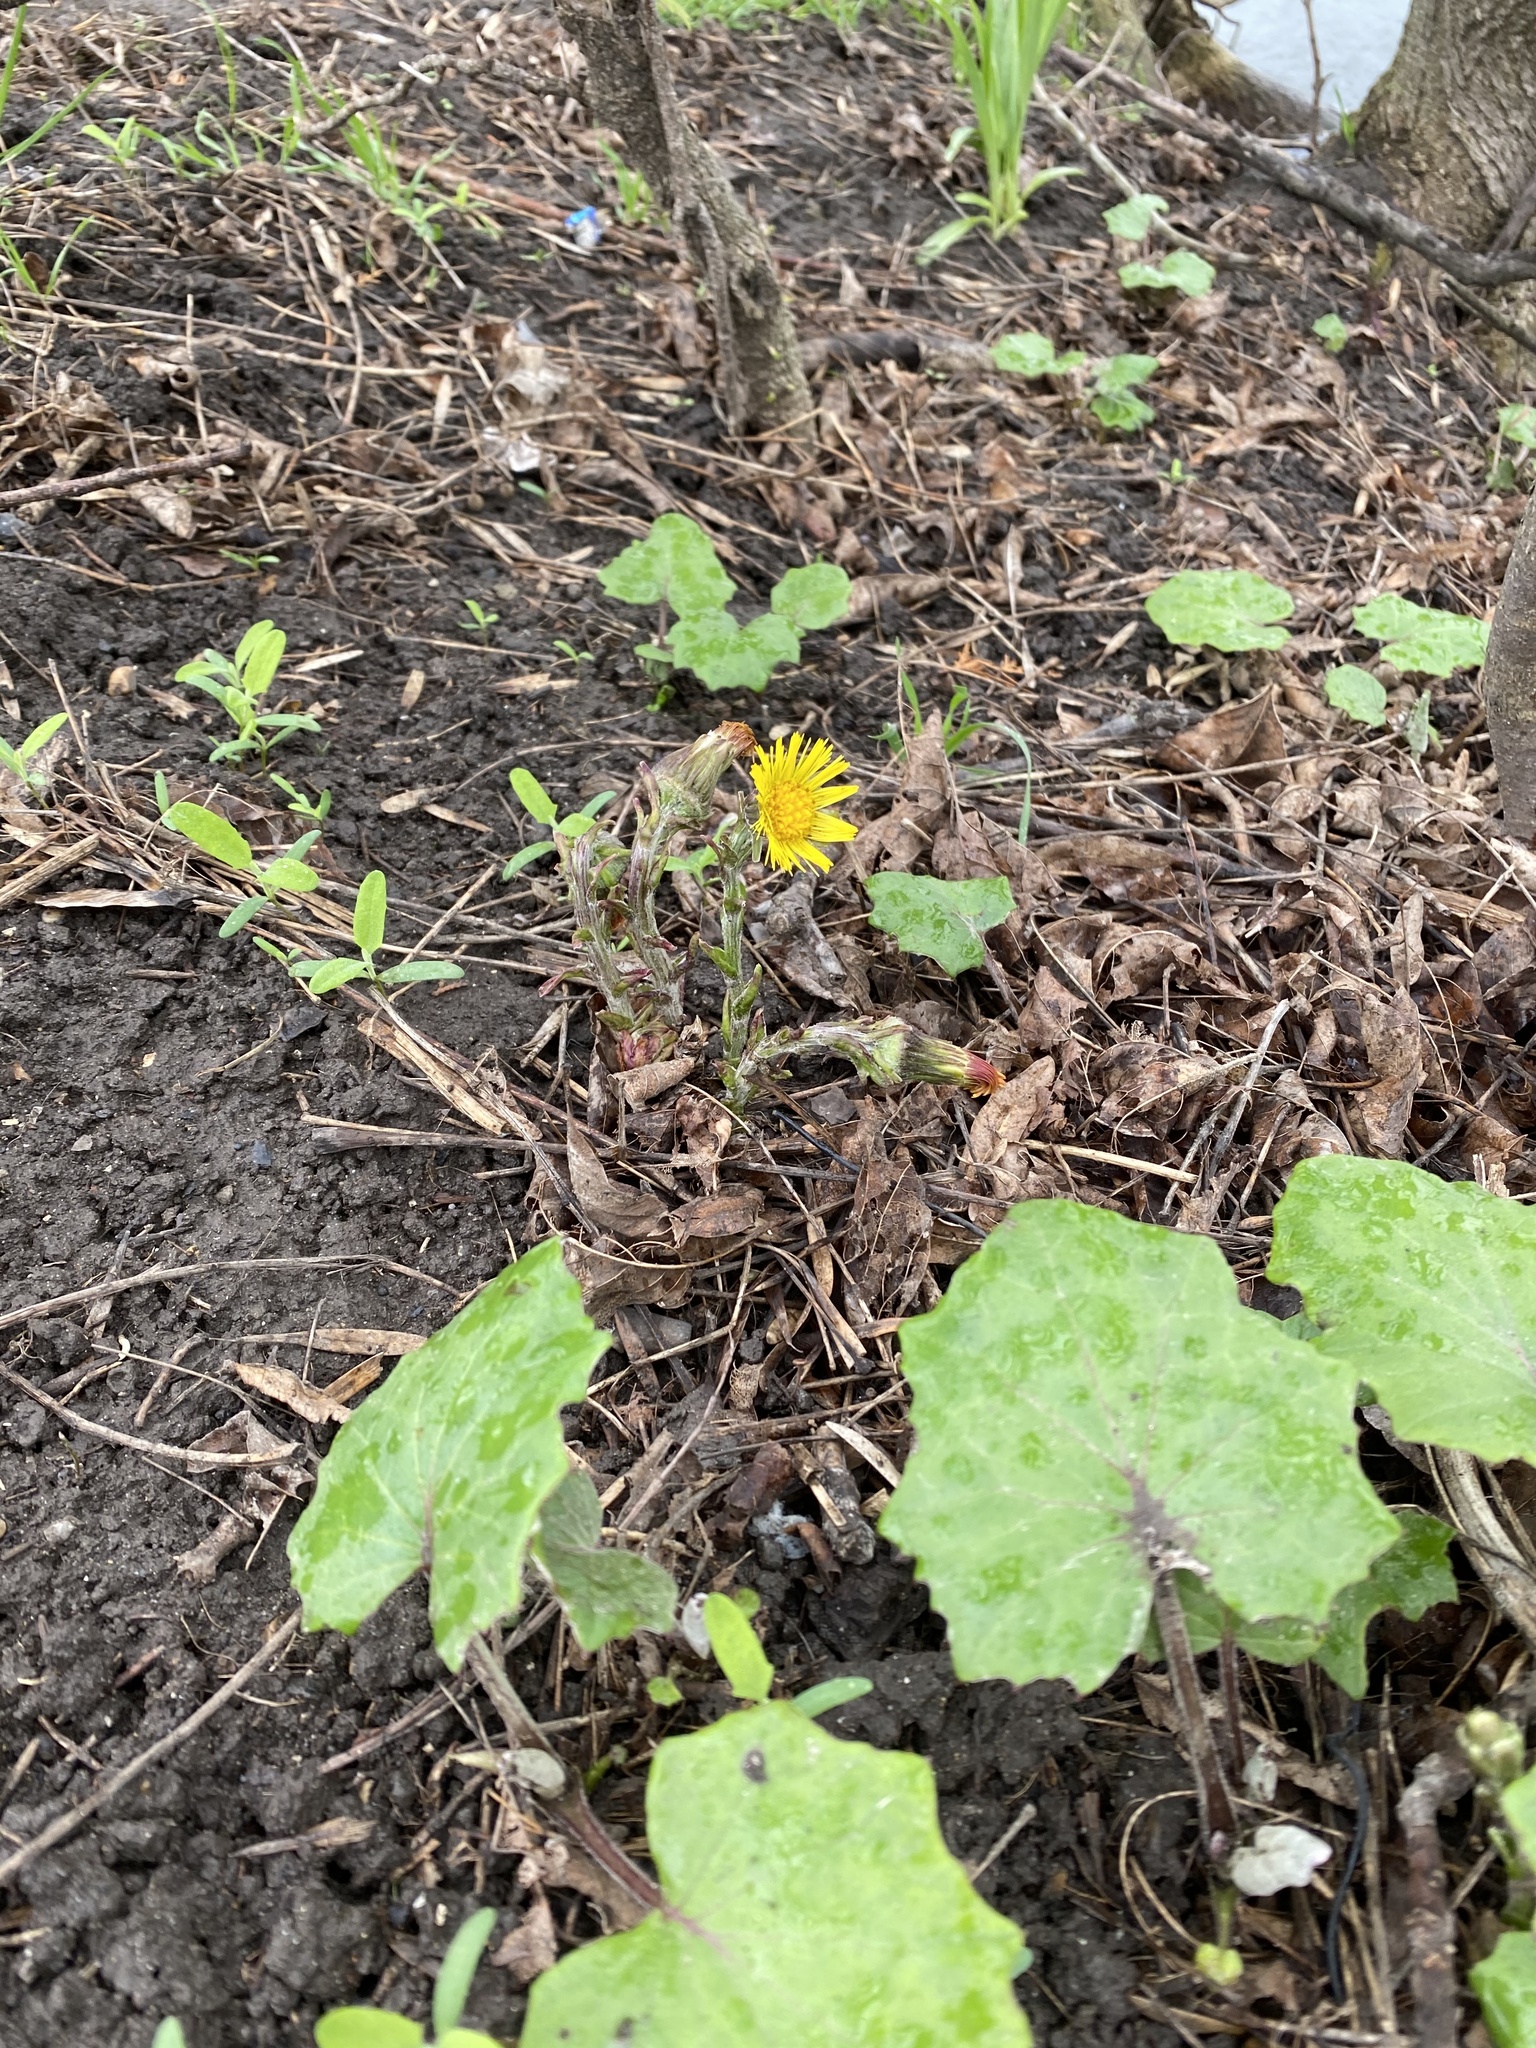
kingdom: Plantae
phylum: Tracheophyta
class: Magnoliopsida
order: Asterales
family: Asteraceae
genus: Tussilago
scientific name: Tussilago farfara
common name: Coltsfoot
